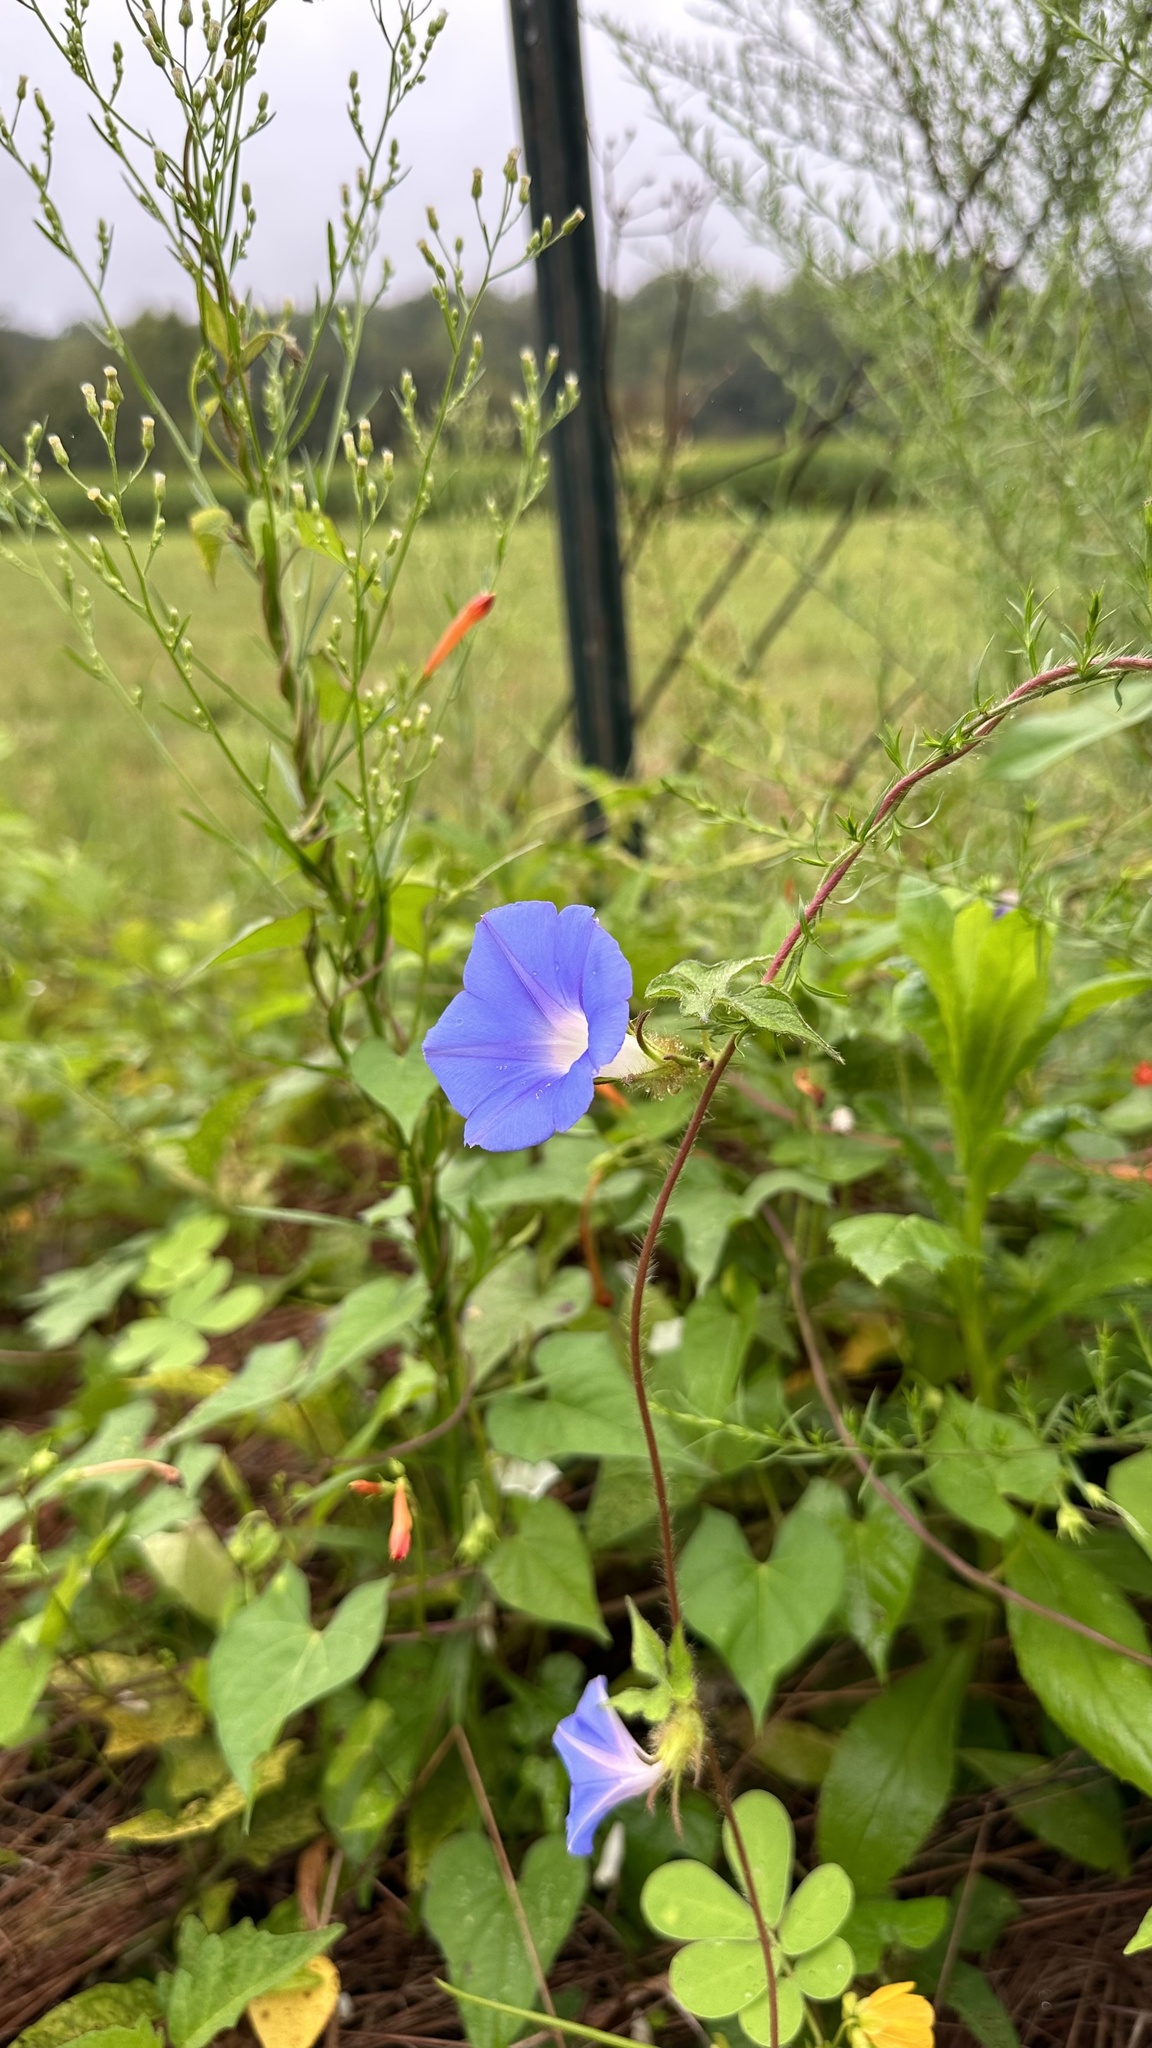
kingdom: Plantae
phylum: Tracheophyta
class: Magnoliopsida
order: Solanales
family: Convolvulaceae
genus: Ipomoea
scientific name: Ipomoea hederacea
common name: Ivy-leaved morning-glory
